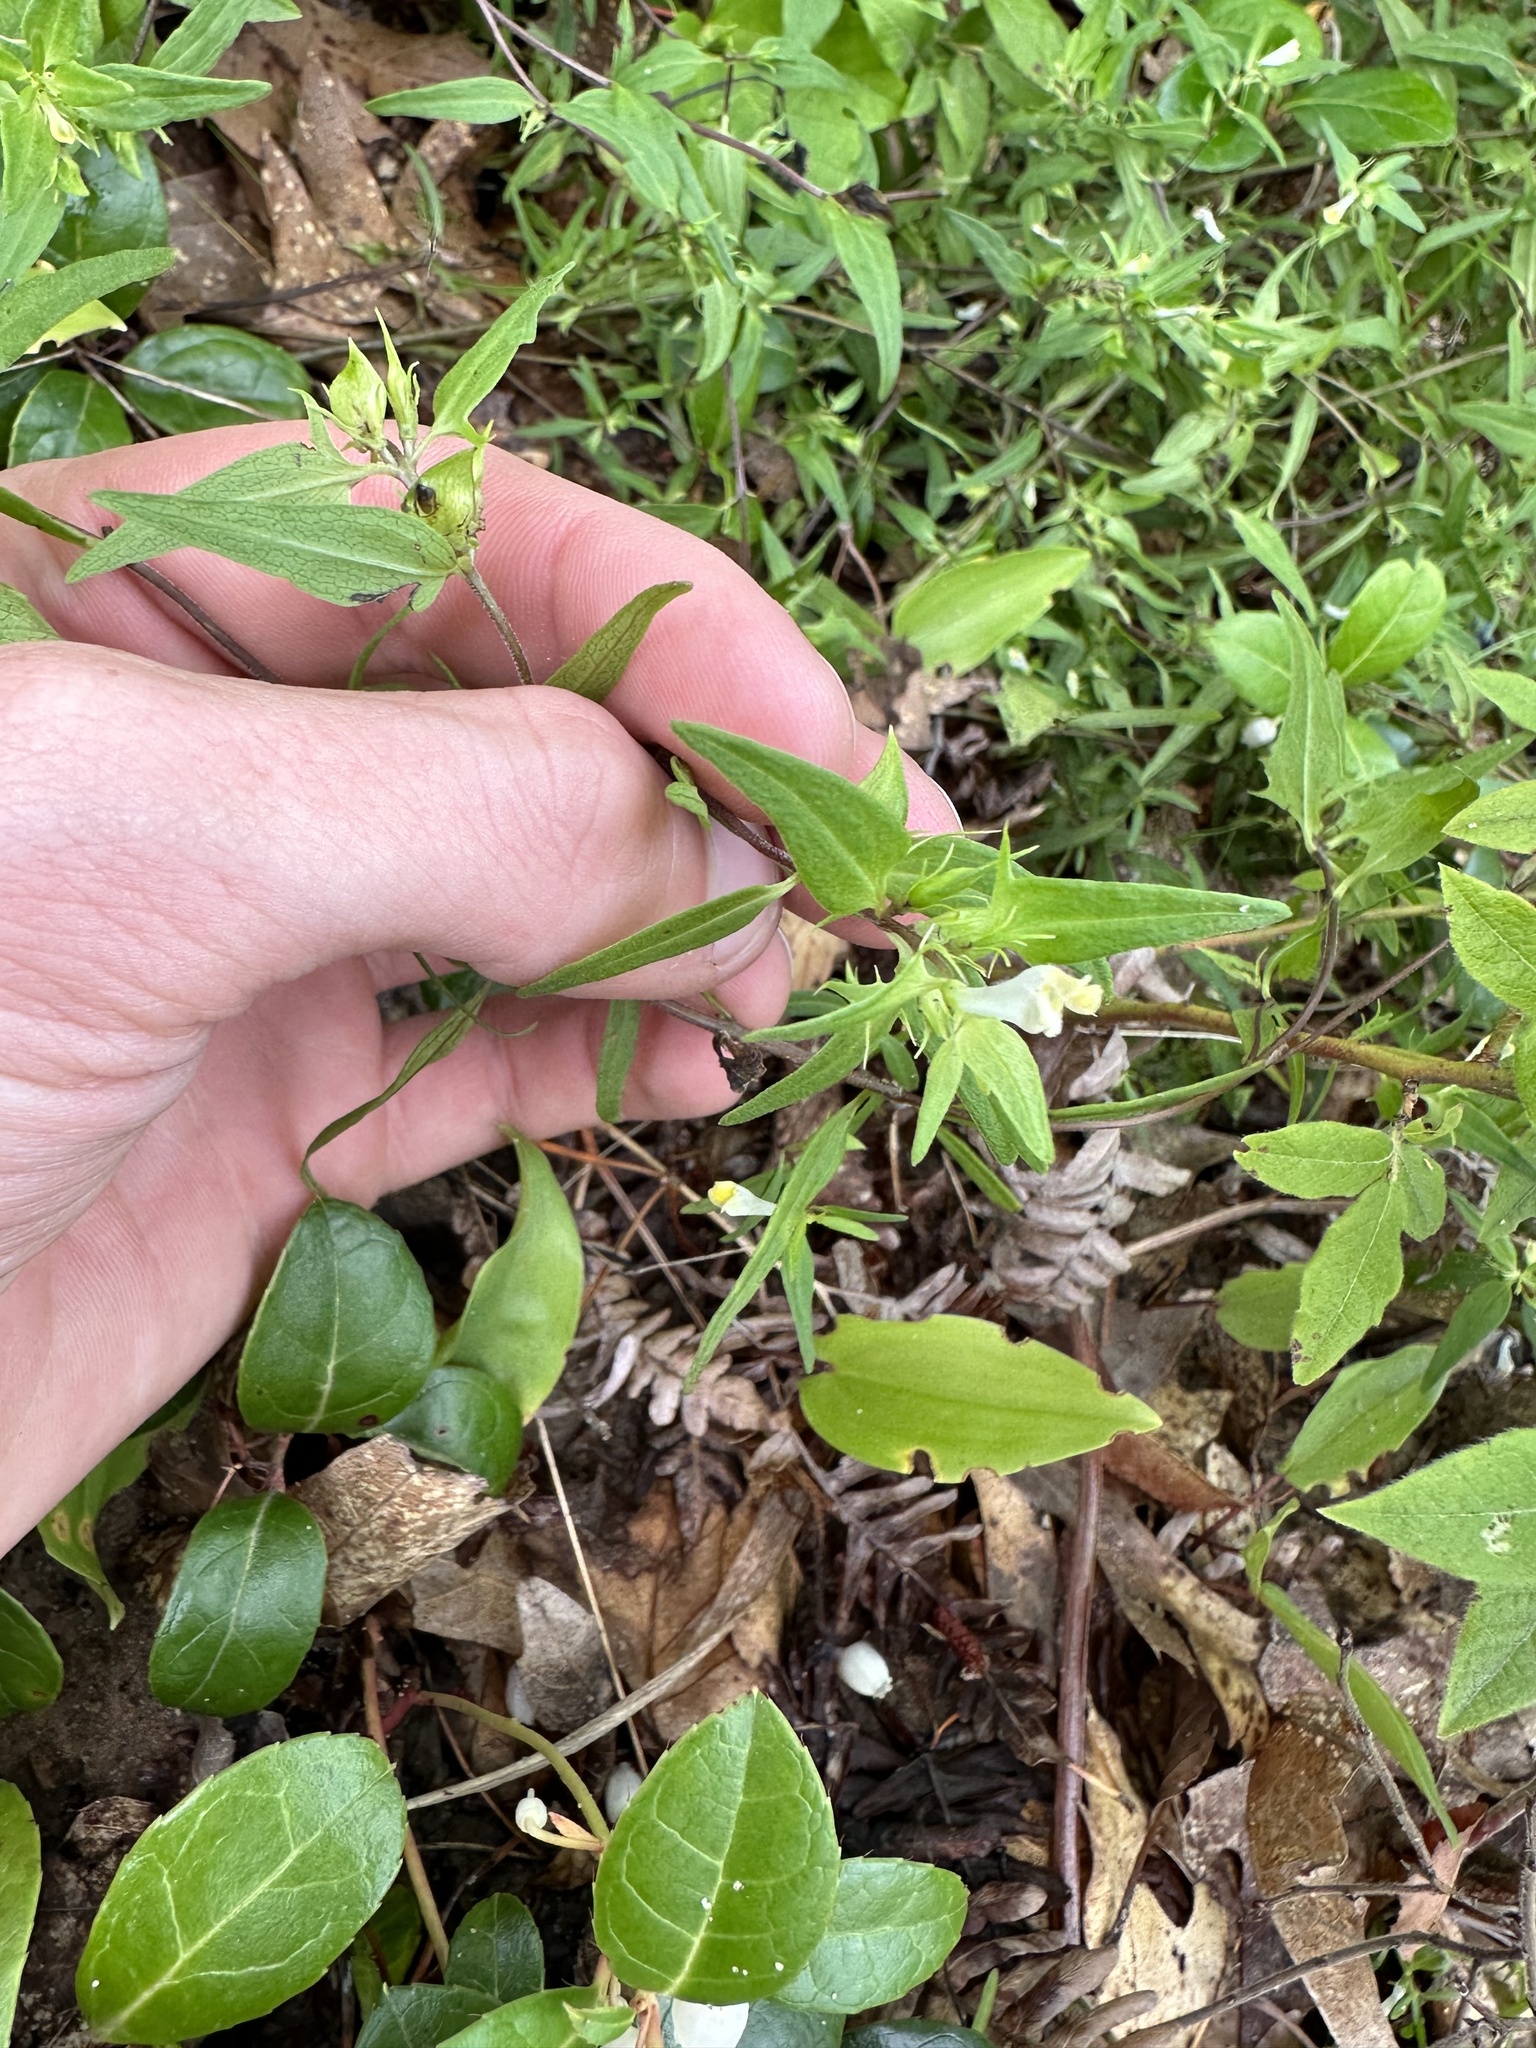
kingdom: Plantae
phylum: Tracheophyta
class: Magnoliopsida
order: Lamiales
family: Orobanchaceae
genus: Melampyrum
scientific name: Melampyrum lineare
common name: American cow-wheat
